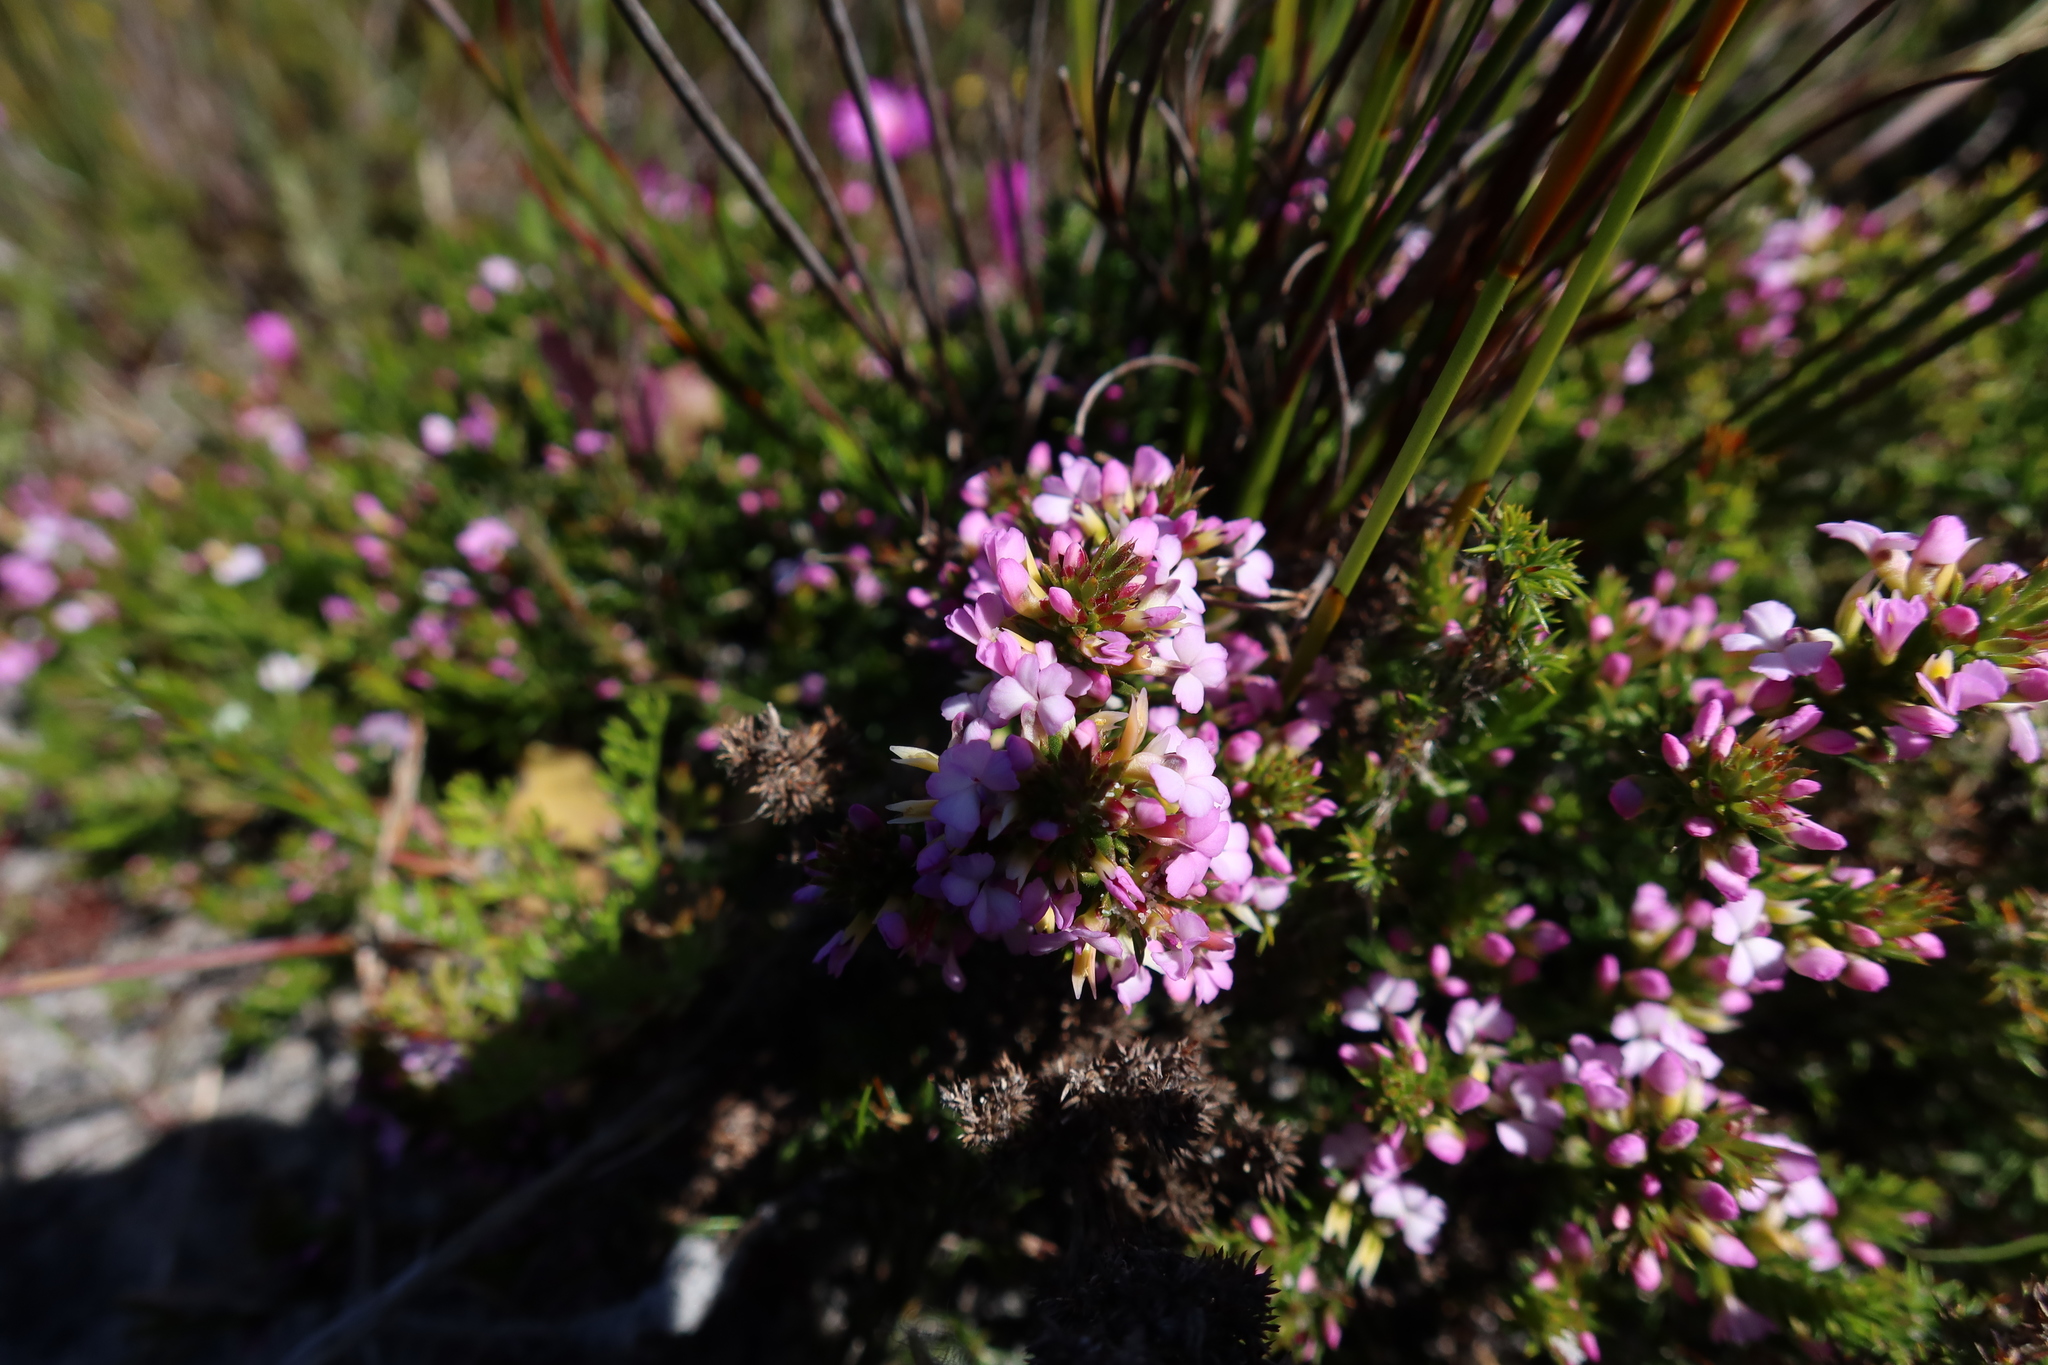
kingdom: Plantae
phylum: Tracheophyta
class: Magnoliopsida
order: Fabales
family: Polygalaceae
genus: Muraltia
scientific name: Muraltia pageae
